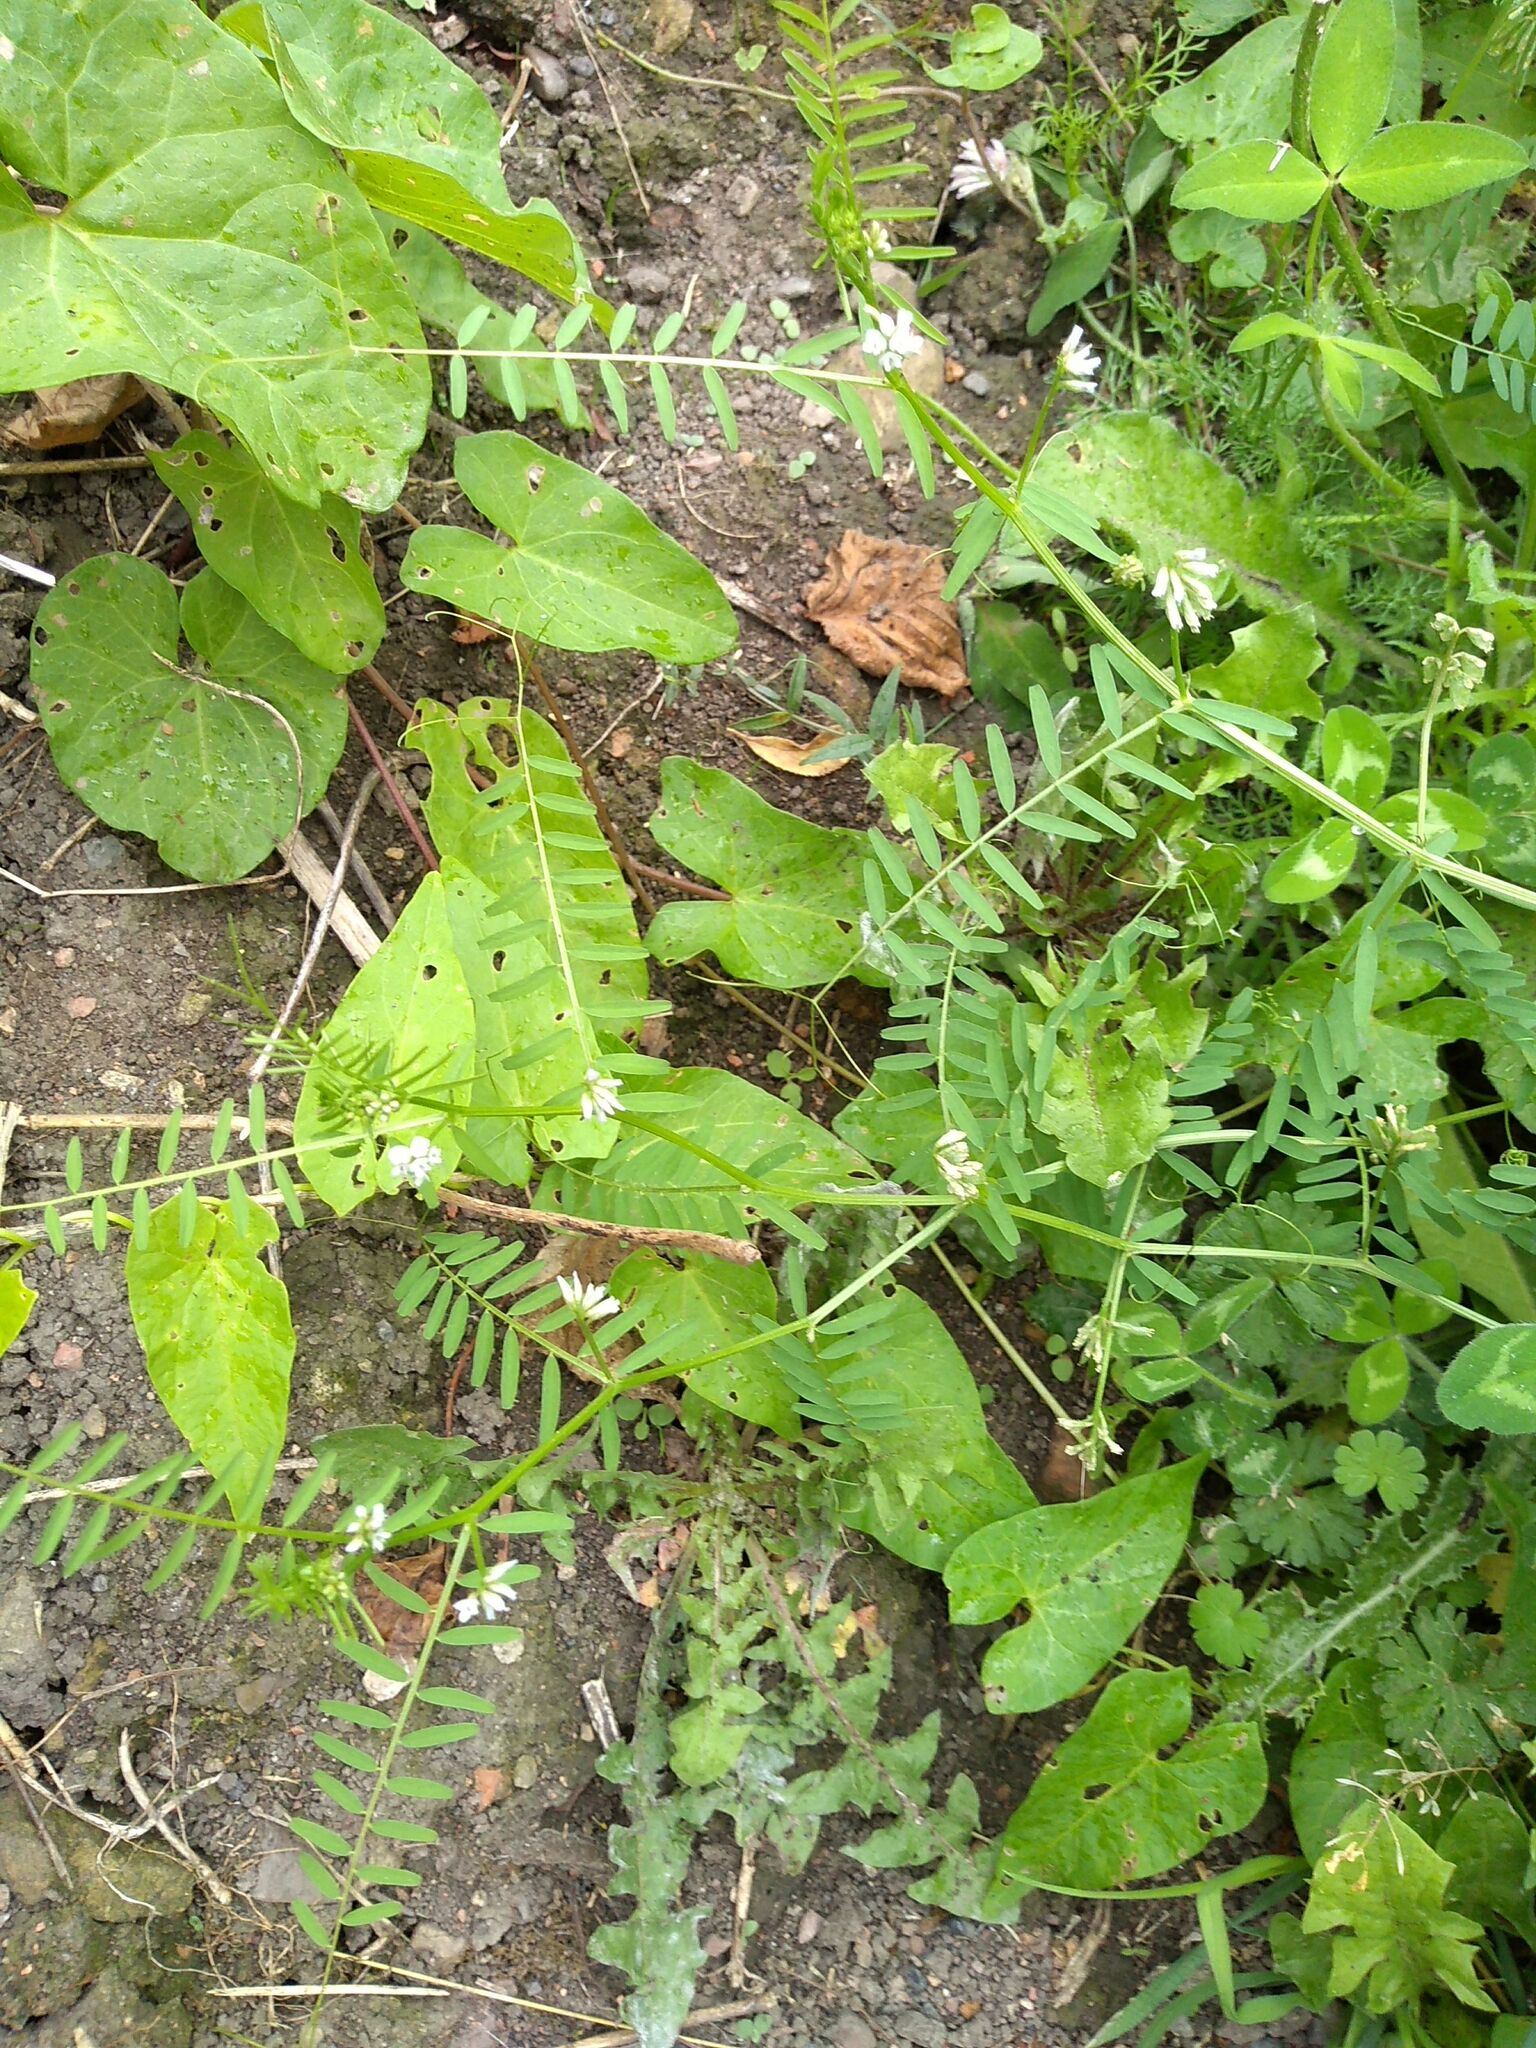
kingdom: Plantae
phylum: Tracheophyta
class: Magnoliopsida
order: Fabales
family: Fabaceae
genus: Vicia
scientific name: Vicia hirsuta
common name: Tiny vetch
